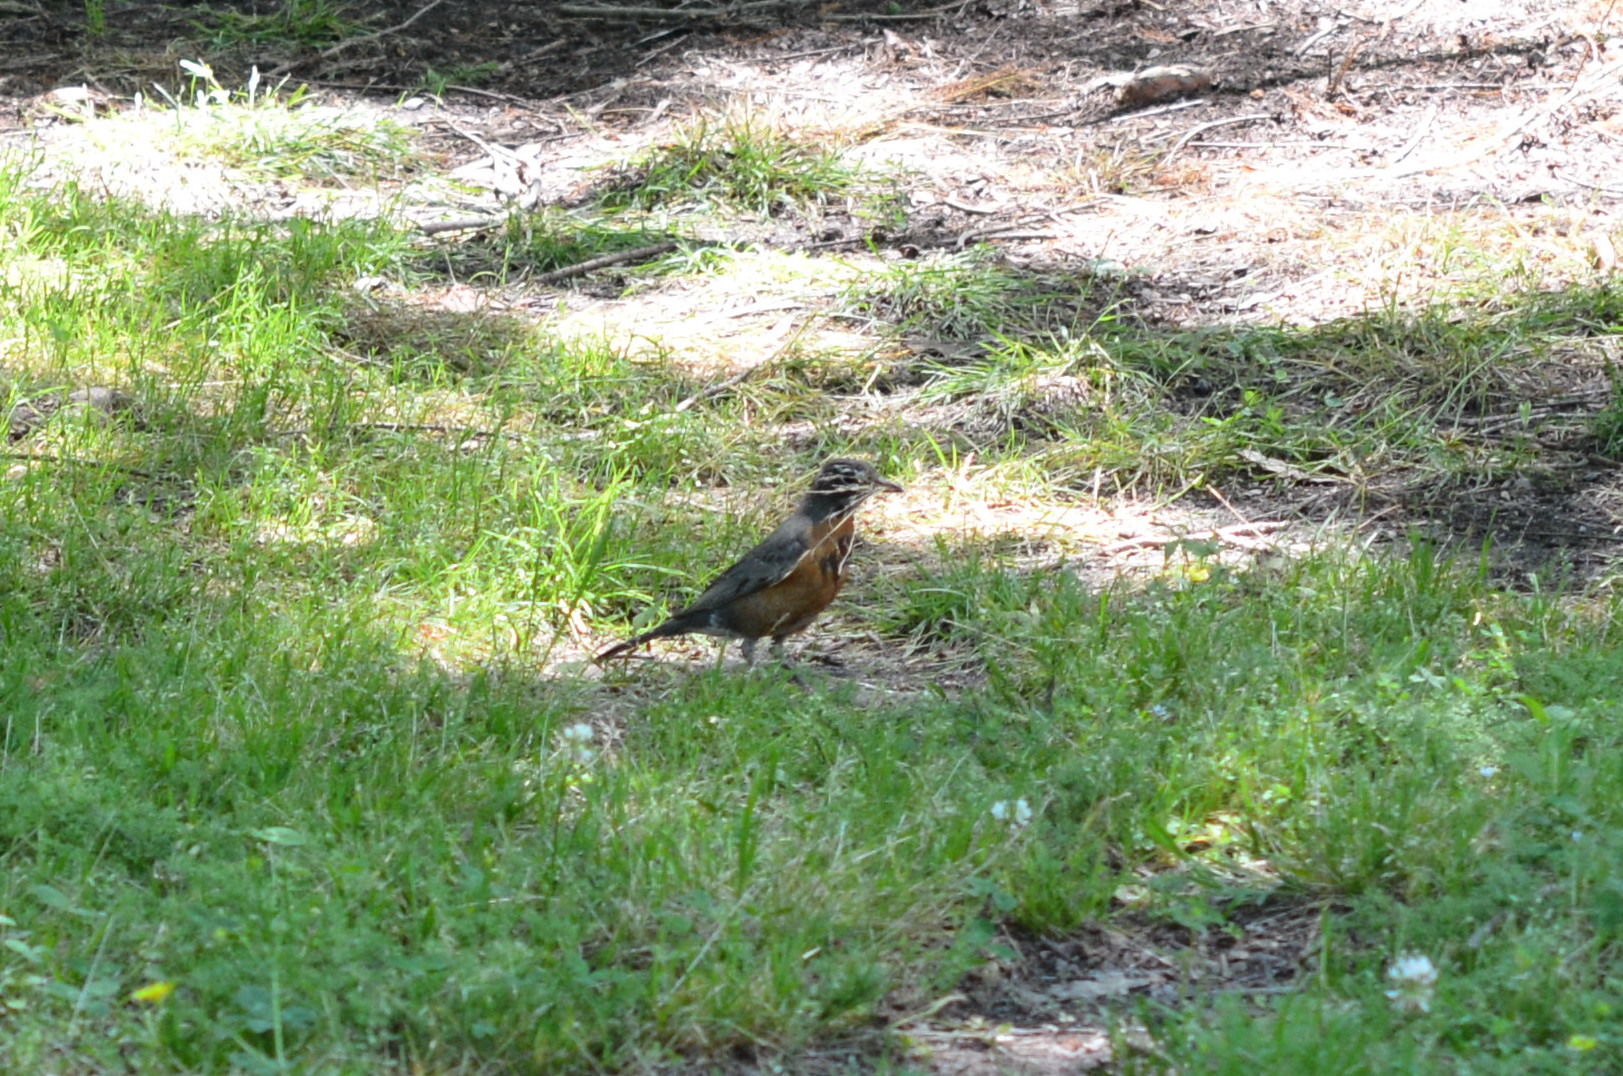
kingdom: Animalia
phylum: Chordata
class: Aves
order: Passeriformes
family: Turdidae
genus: Turdus
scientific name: Turdus migratorius
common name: American robin
